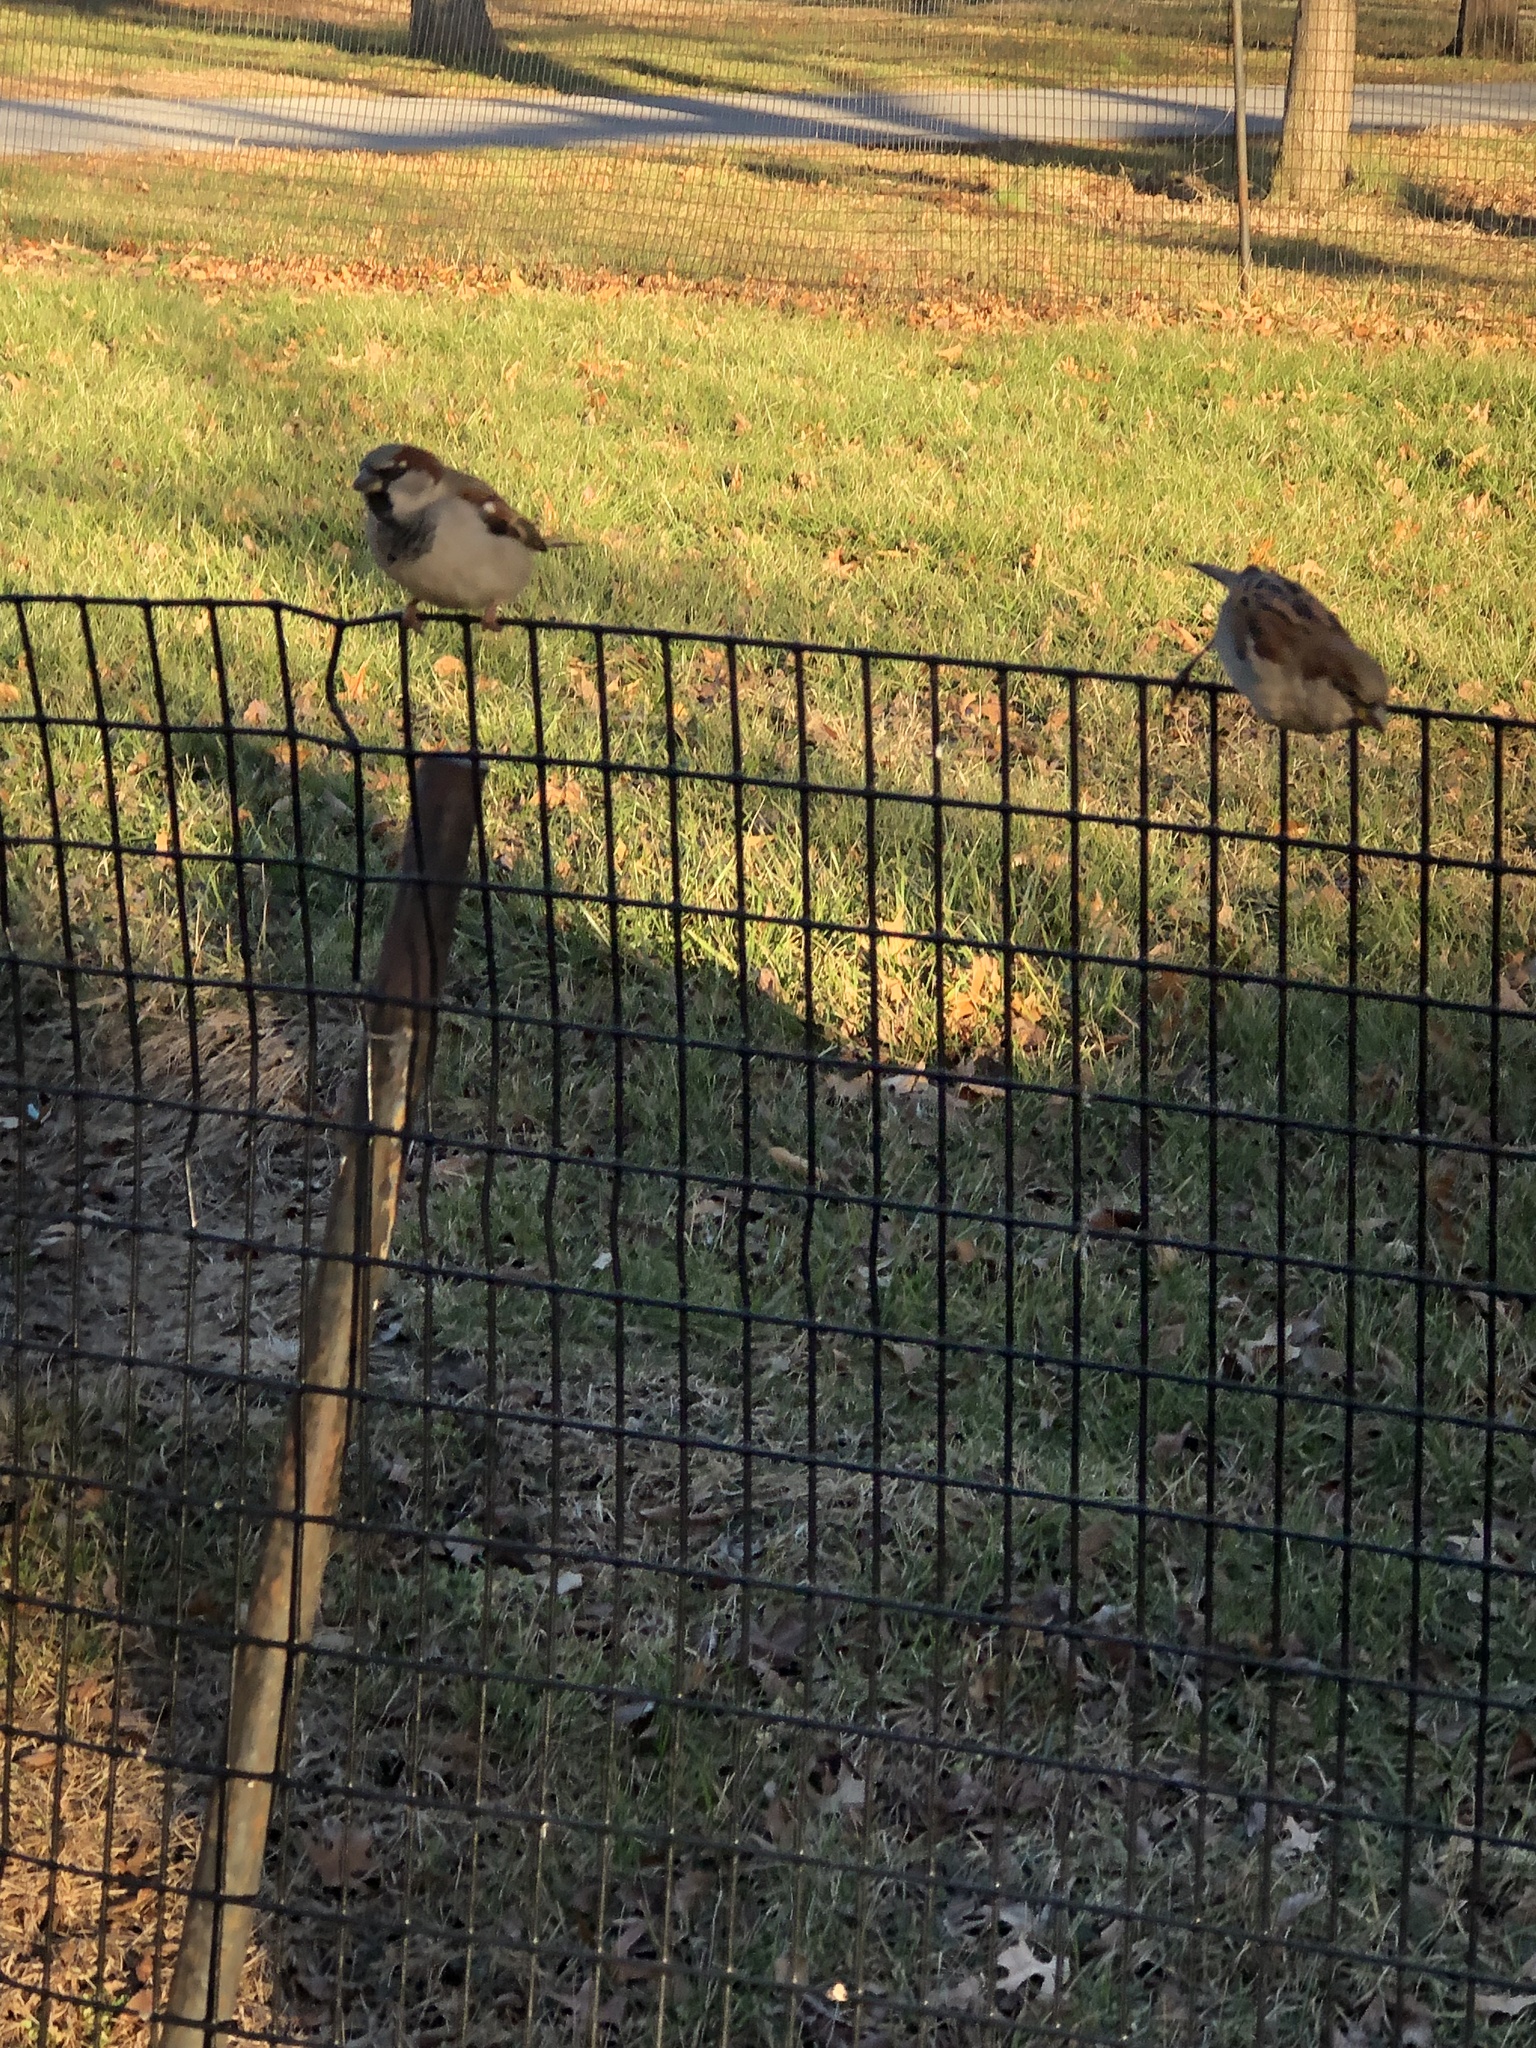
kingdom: Animalia
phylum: Chordata
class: Aves
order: Passeriformes
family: Passeridae
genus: Passer
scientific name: Passer domesticus
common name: House sparrow
